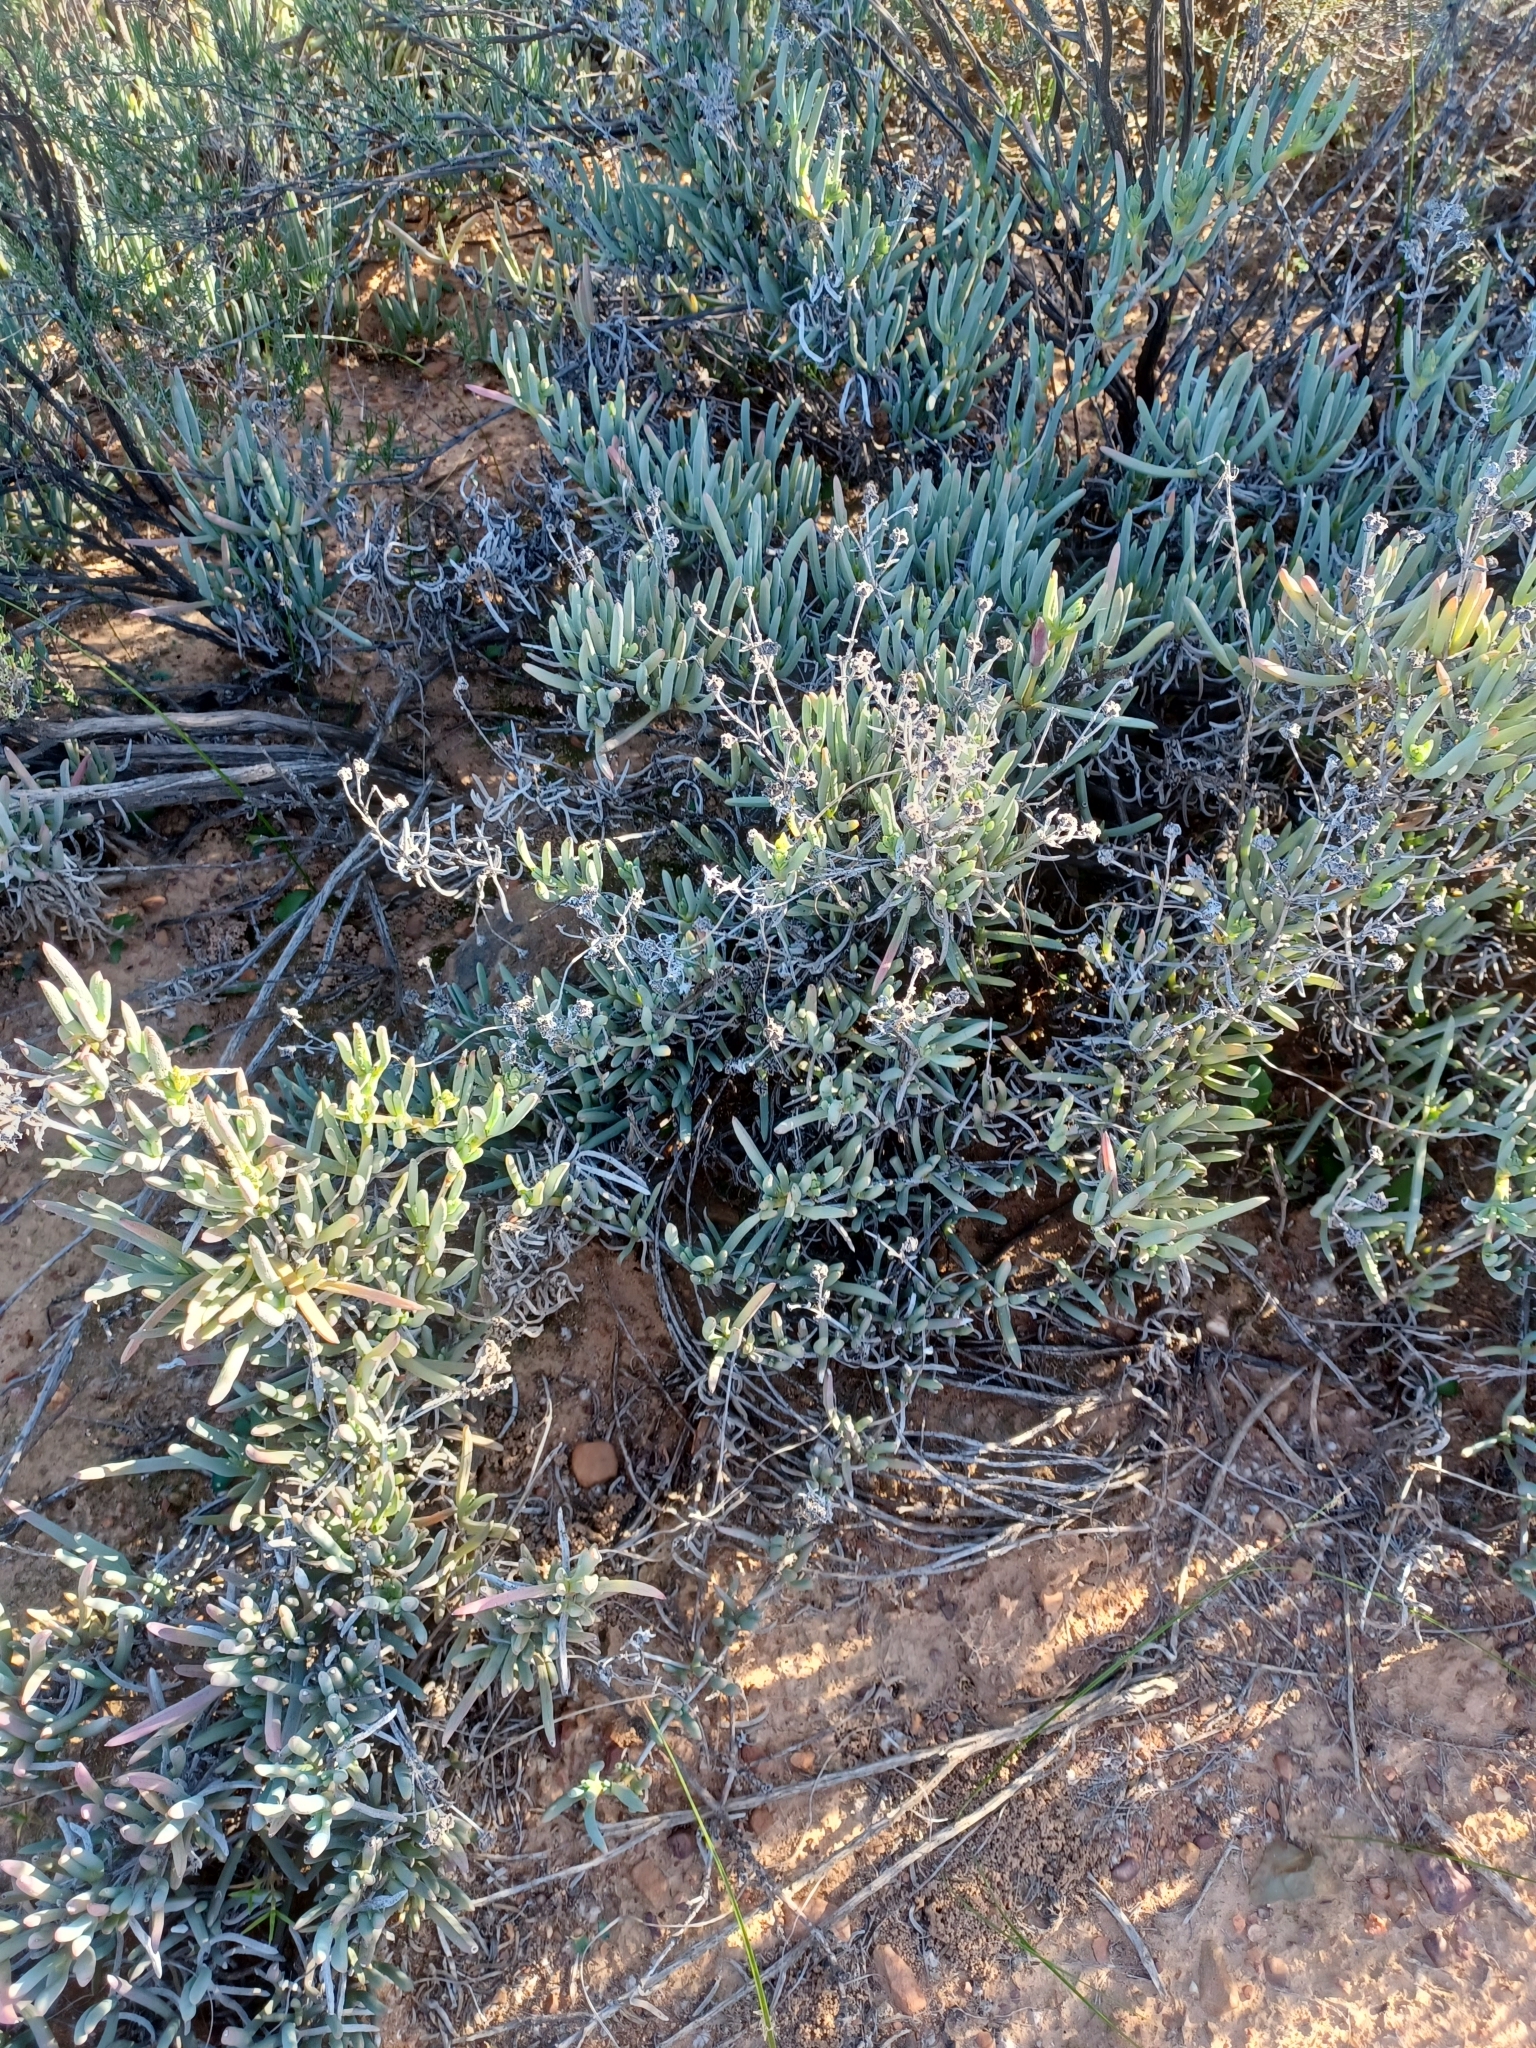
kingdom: Plantae
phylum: Tracheophyta
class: Magnoliopsida
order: Caryophyllales
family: Aizoaceae
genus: Ruschia
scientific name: Ruschia caroli
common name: Shrubby dewplant
